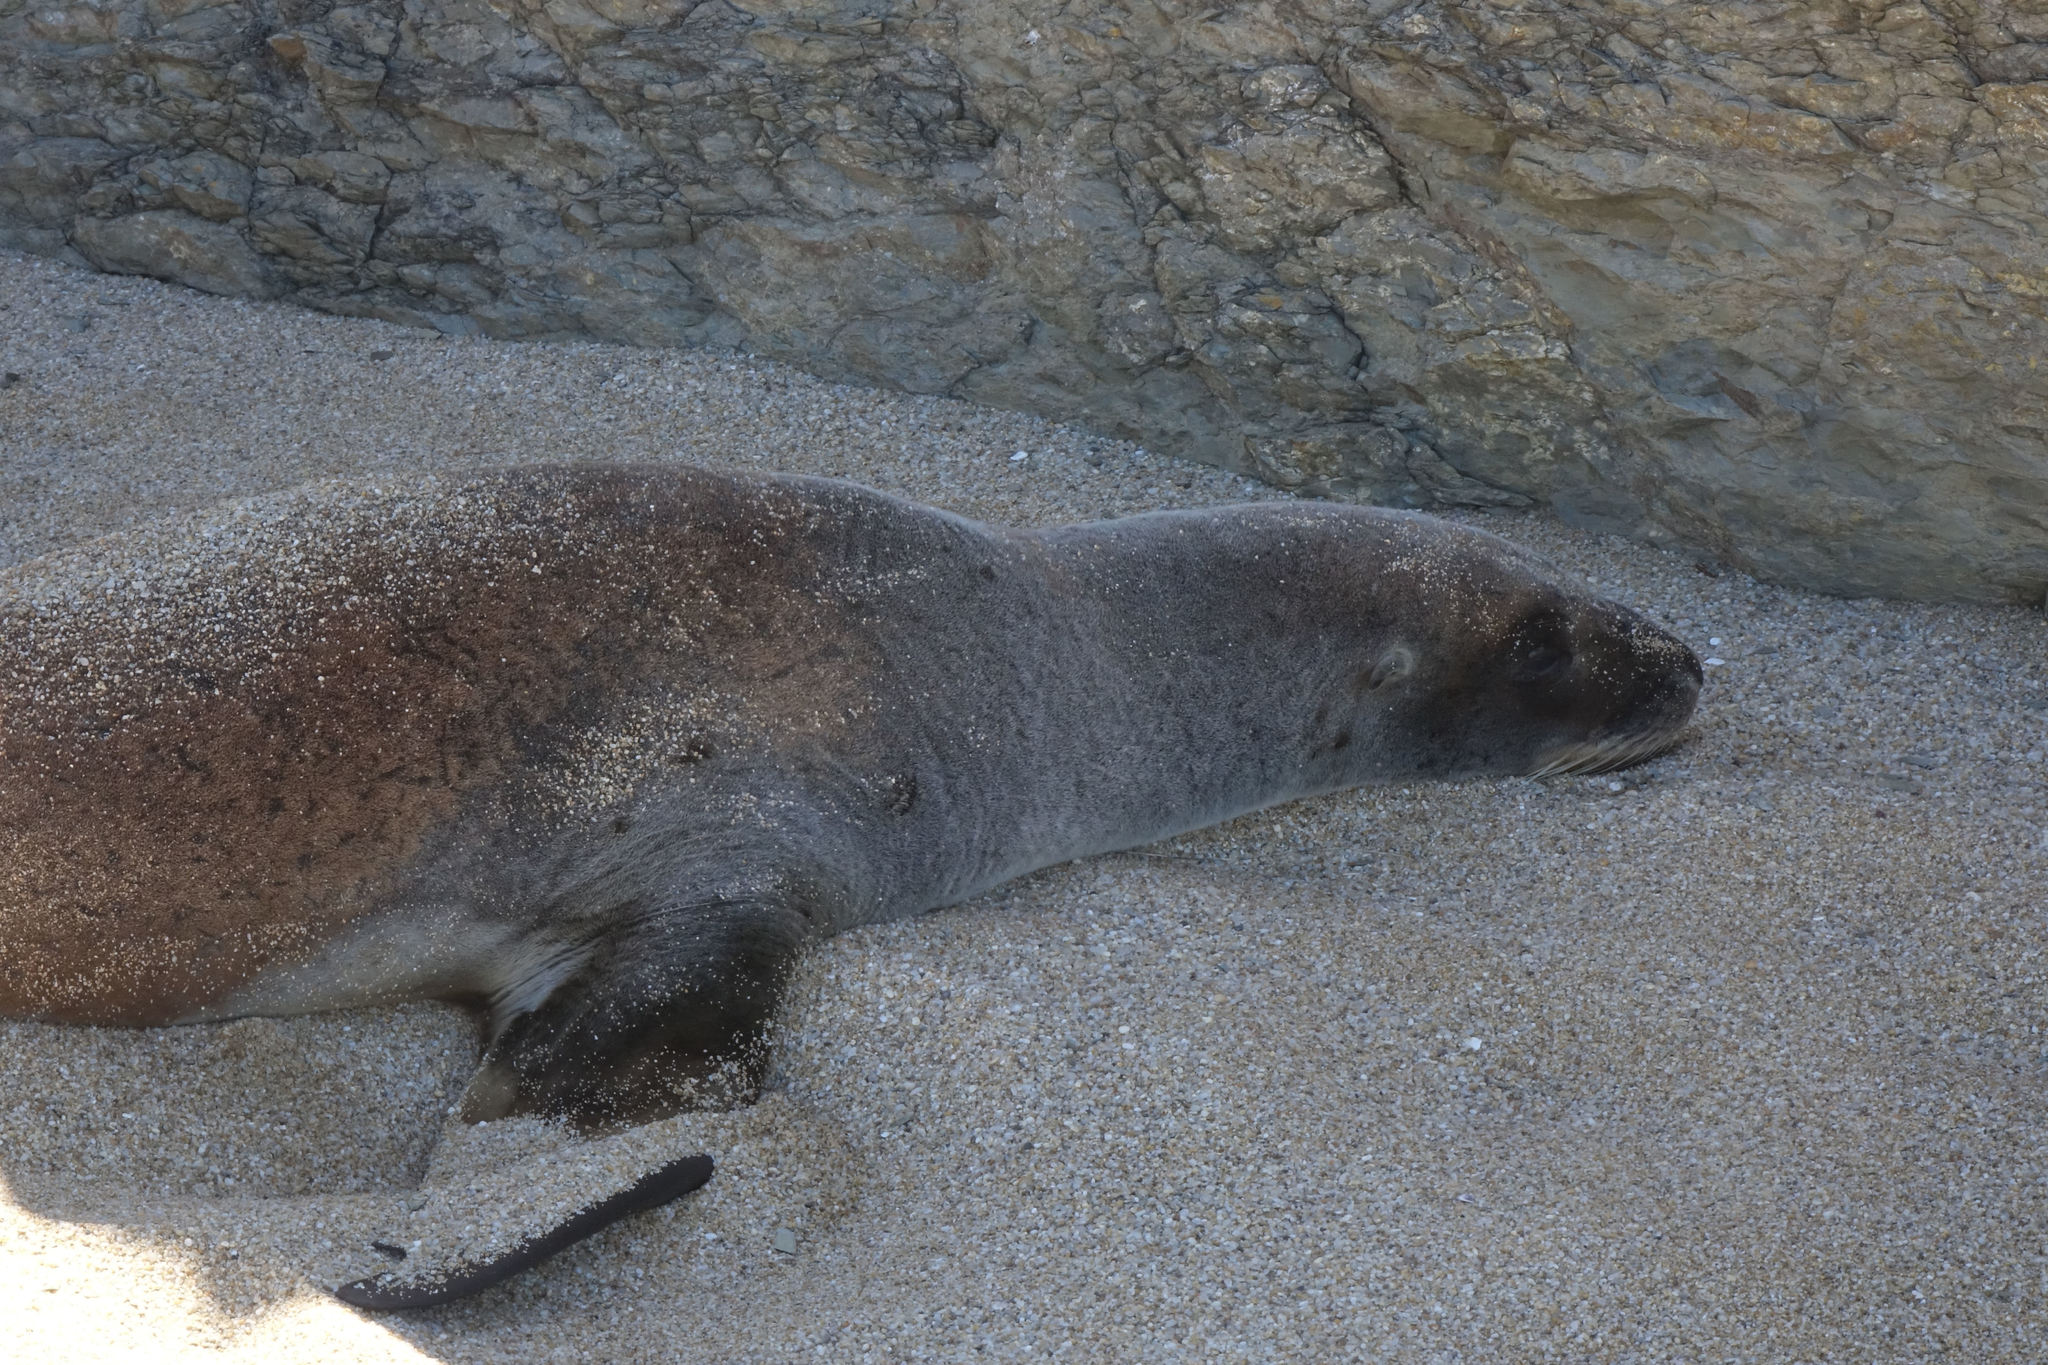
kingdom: Animalia
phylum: Chordata
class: Mammalia
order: Carnivora
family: Otariidae
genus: Phocarctos
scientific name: Phocarctos hookeri
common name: New zealand sea lion
